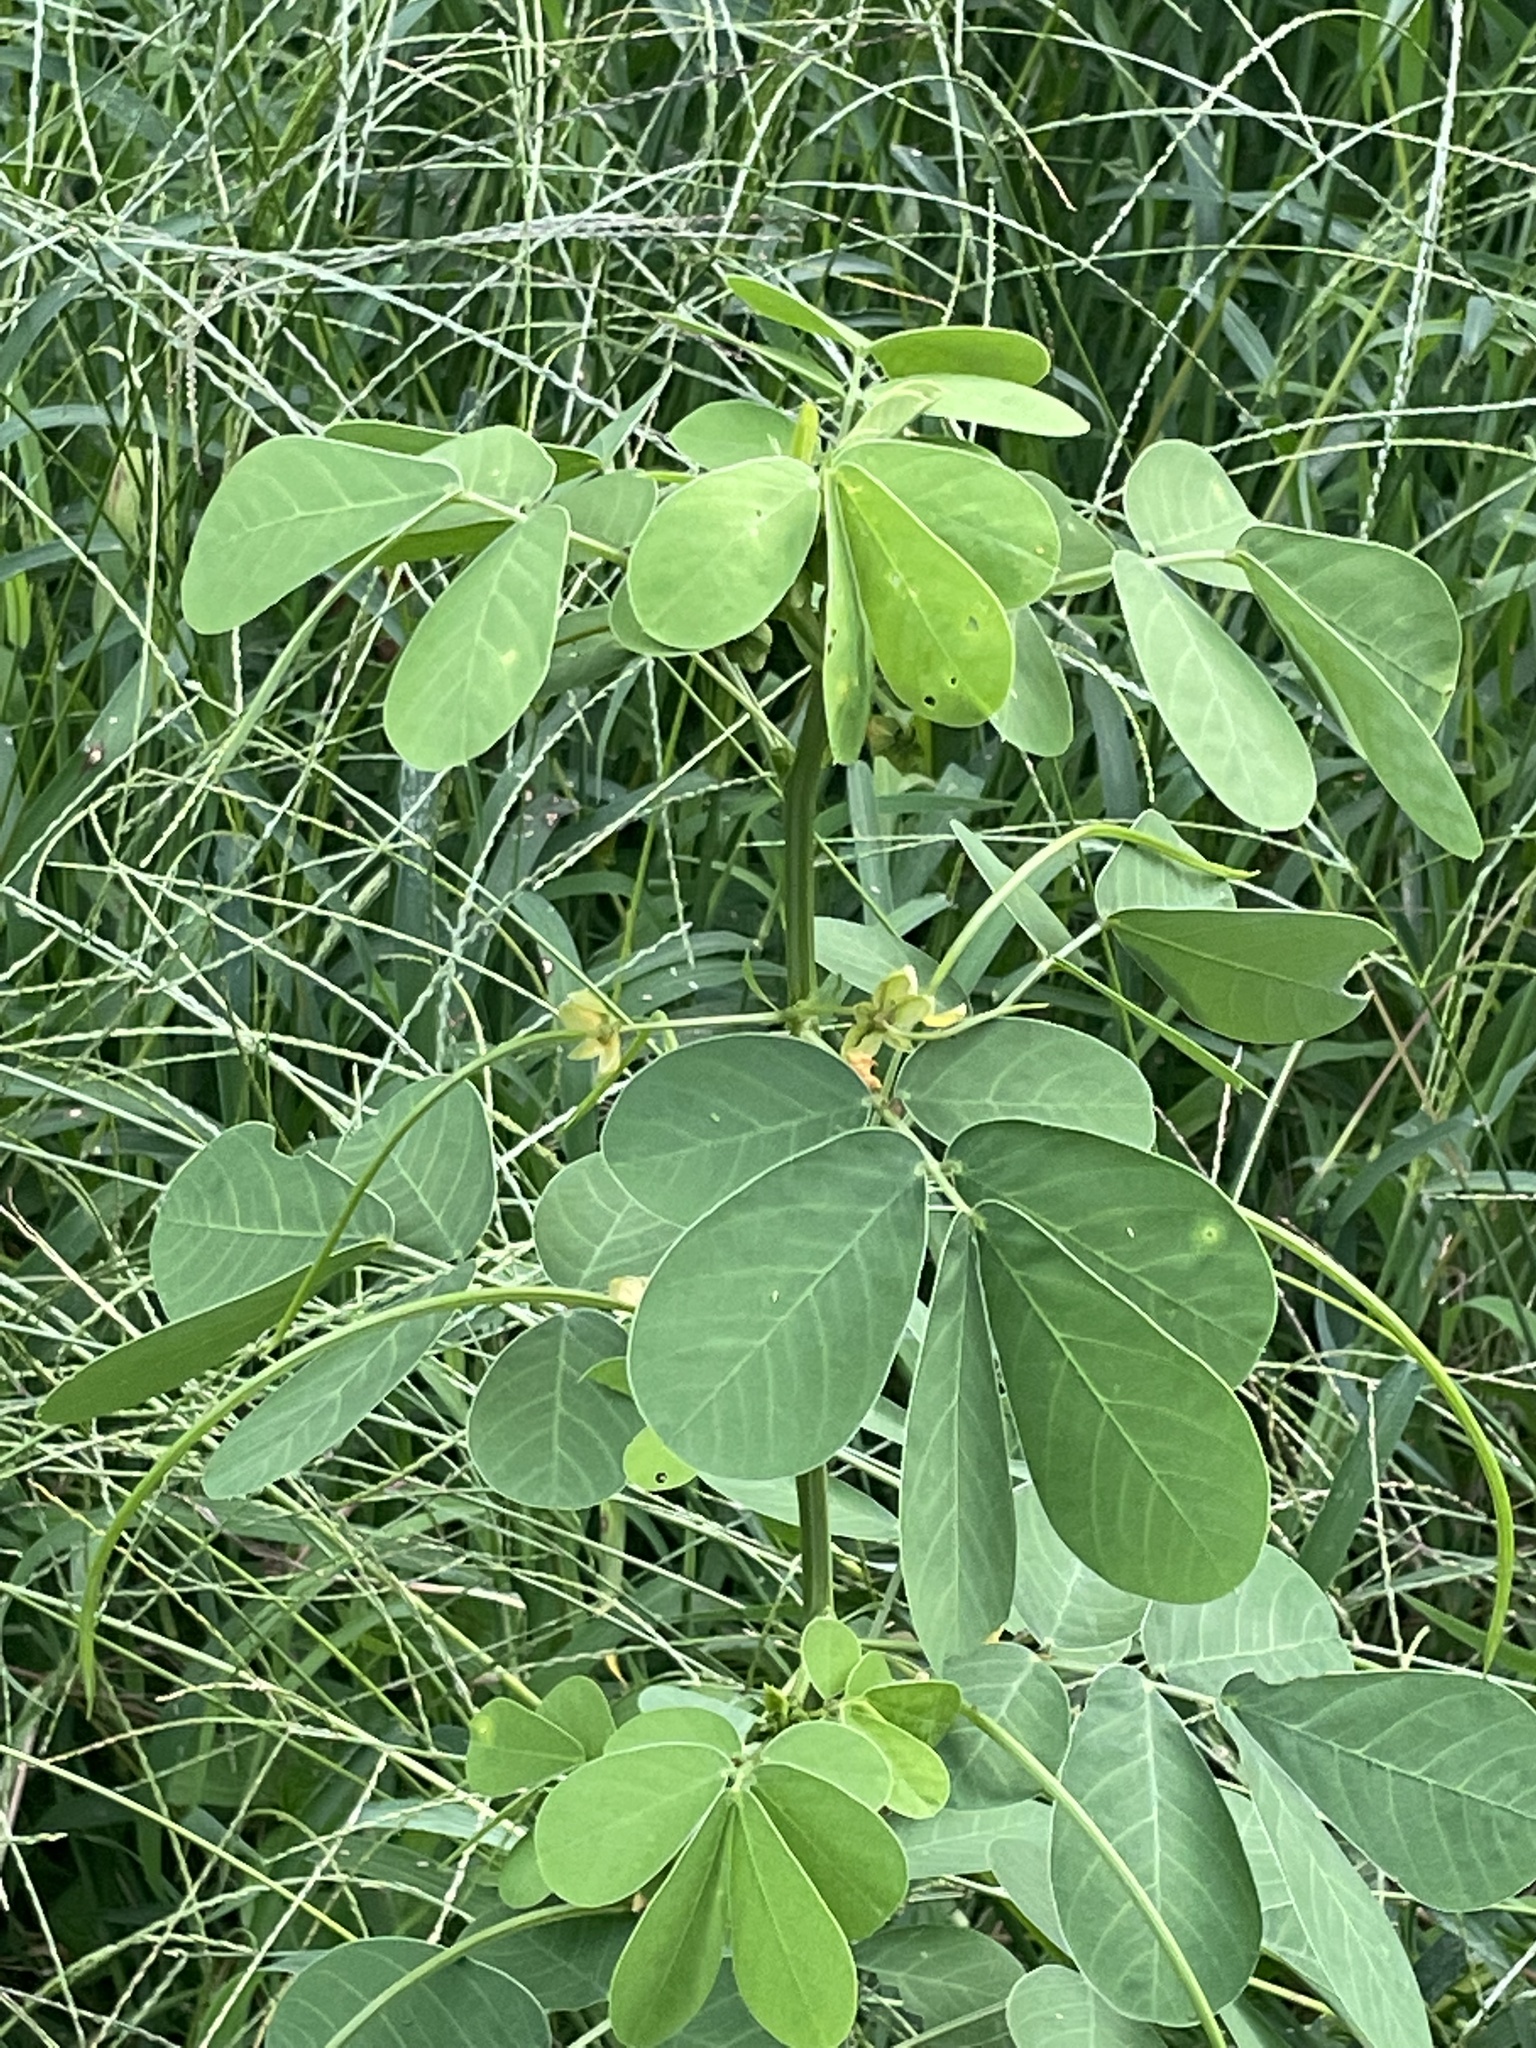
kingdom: Plantae
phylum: Tracheophyta
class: Magnoliopsida
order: Fabales
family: Fabaceae
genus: Senna
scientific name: Senna obtusifolia
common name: Java-bean
